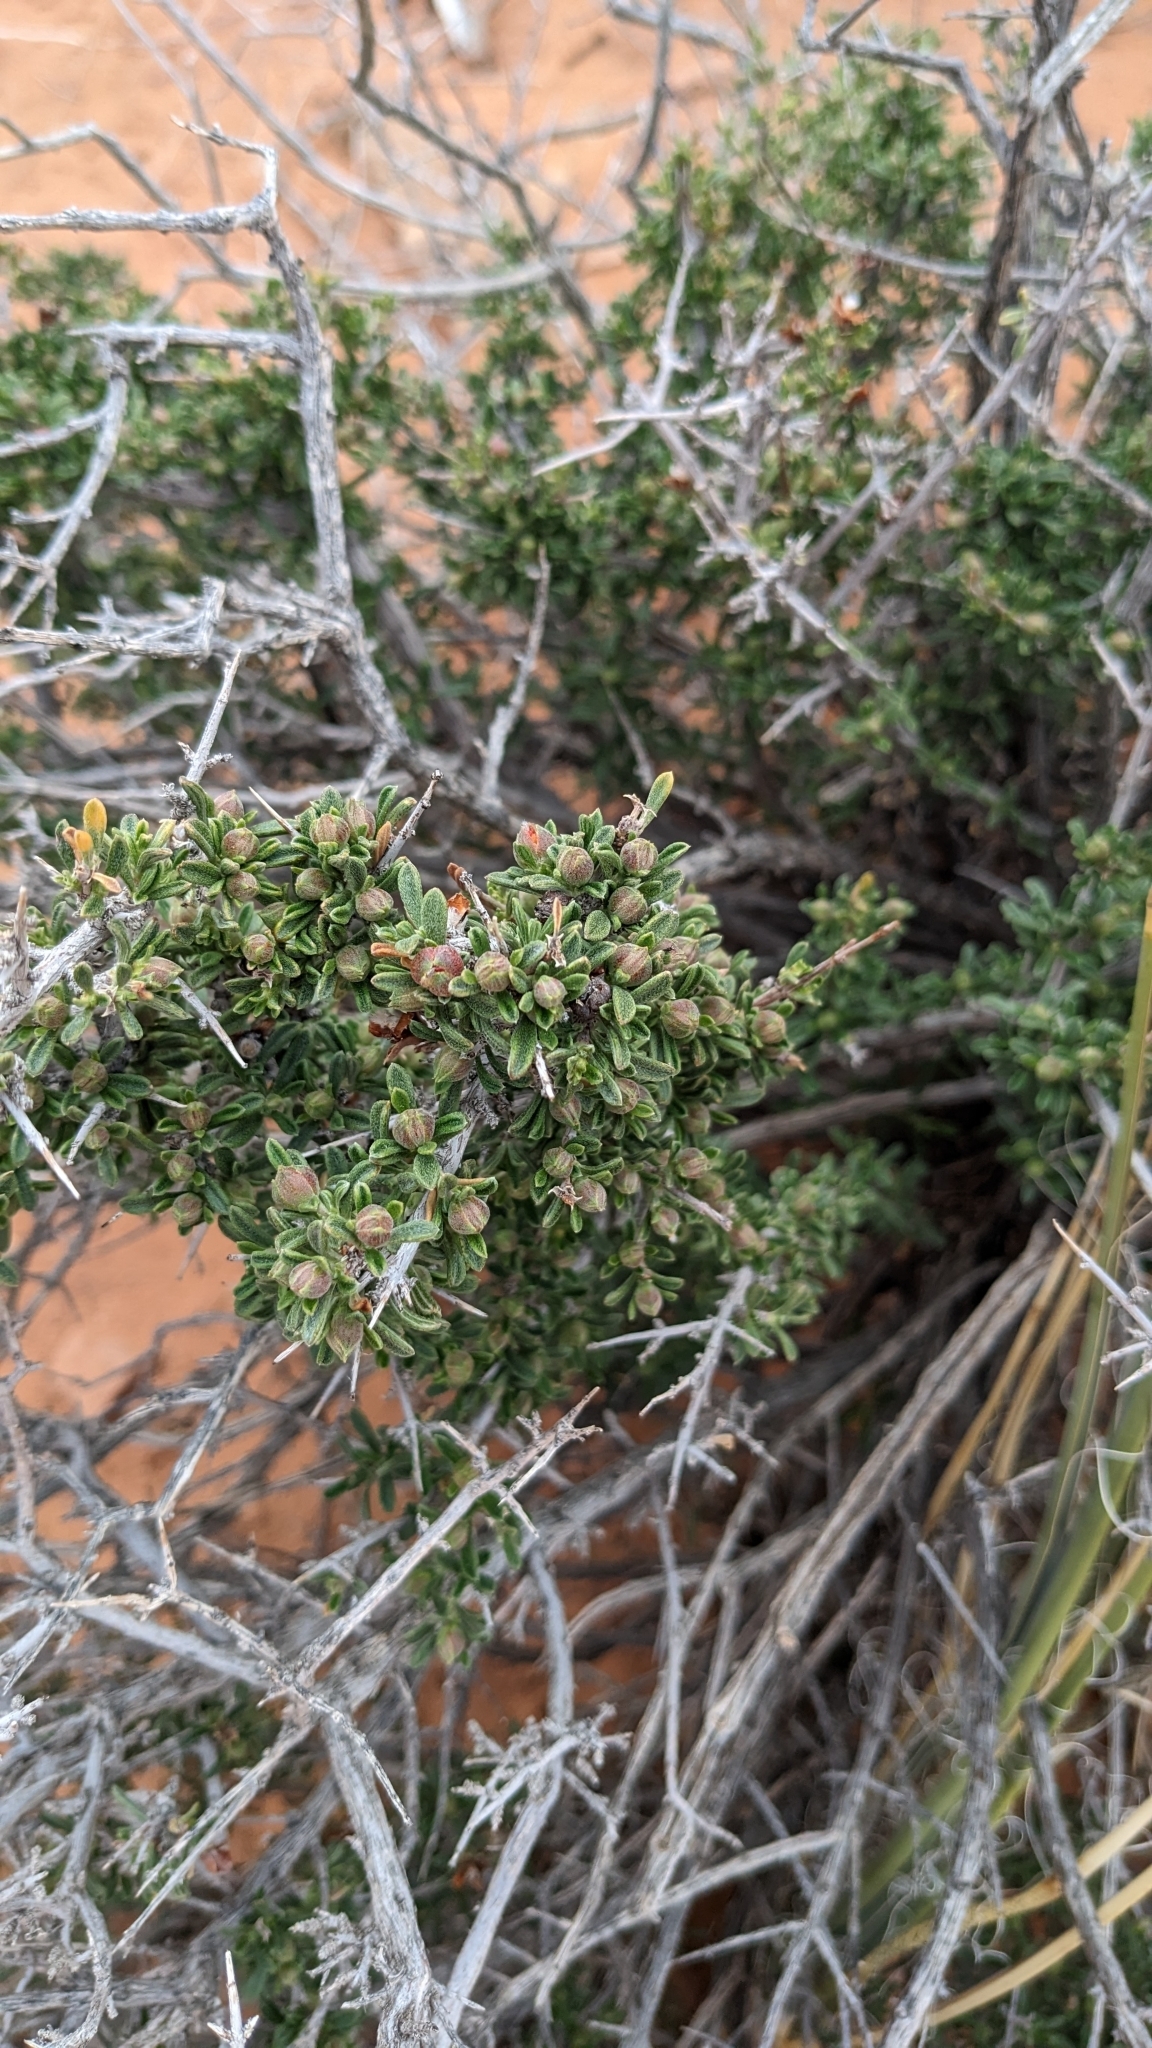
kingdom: Plantae
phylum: Tracheophyta
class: Magnoliopsida
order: Rosales
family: Rosaceae
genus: Coleogyne
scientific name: Coleogyne ramosissima
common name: Blackbrush
